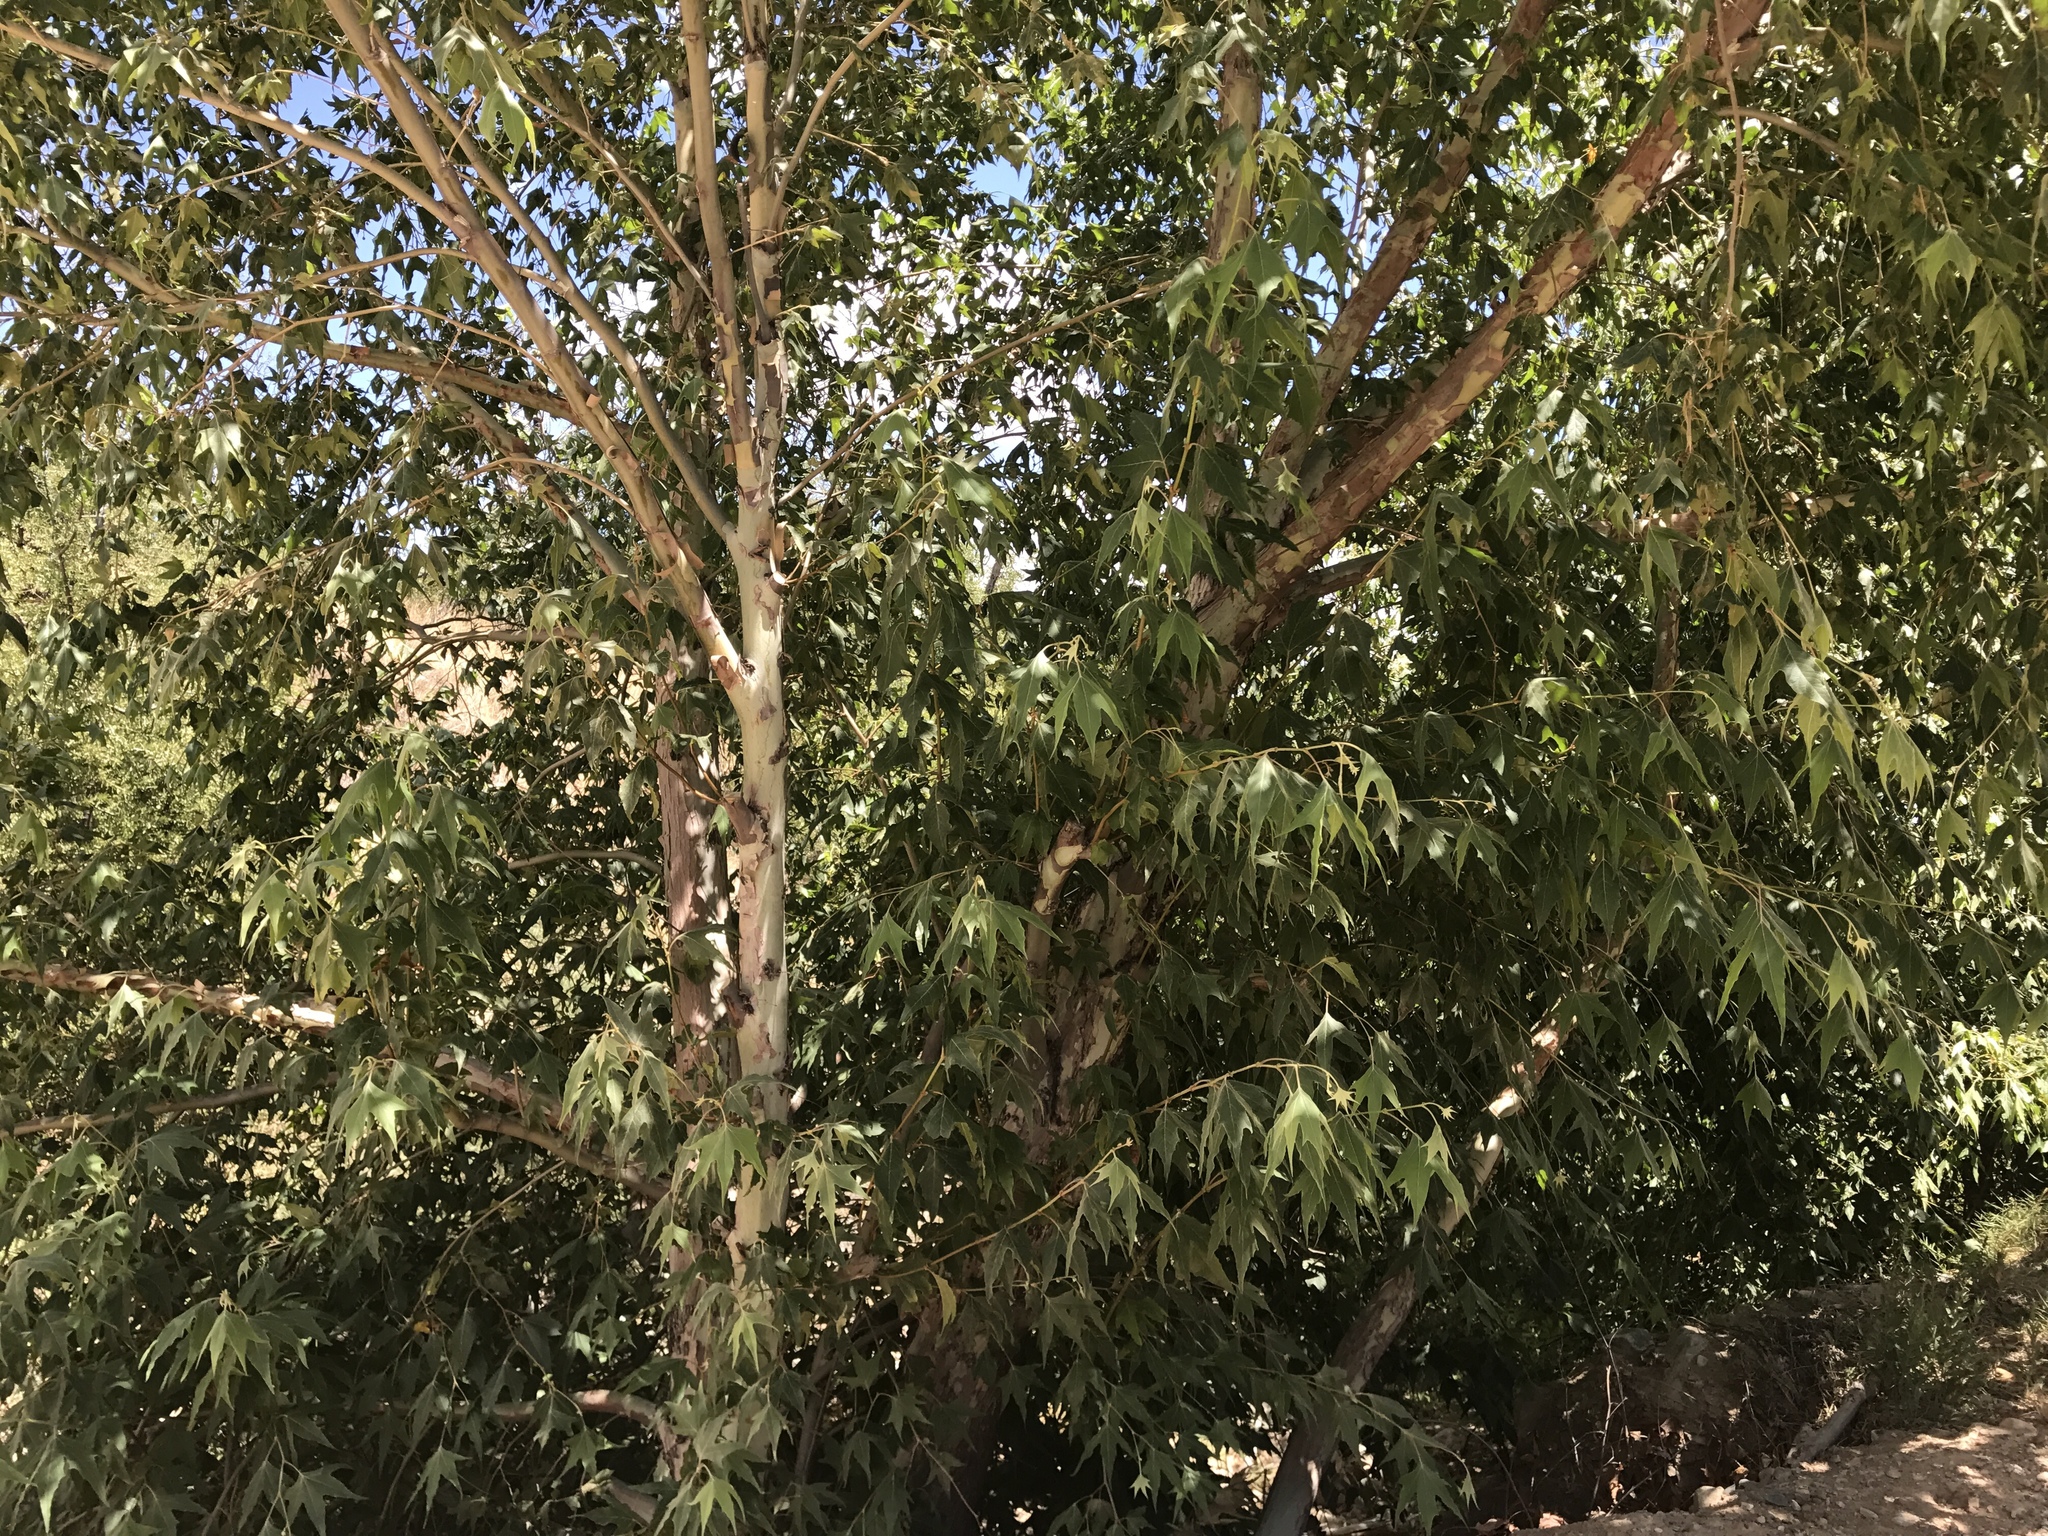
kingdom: Plantae
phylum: Tracheophyta
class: Magnoliopsida
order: Proteales
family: Platanaceae
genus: Platanus
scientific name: Platanus wrightii
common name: Arizona sycamore
